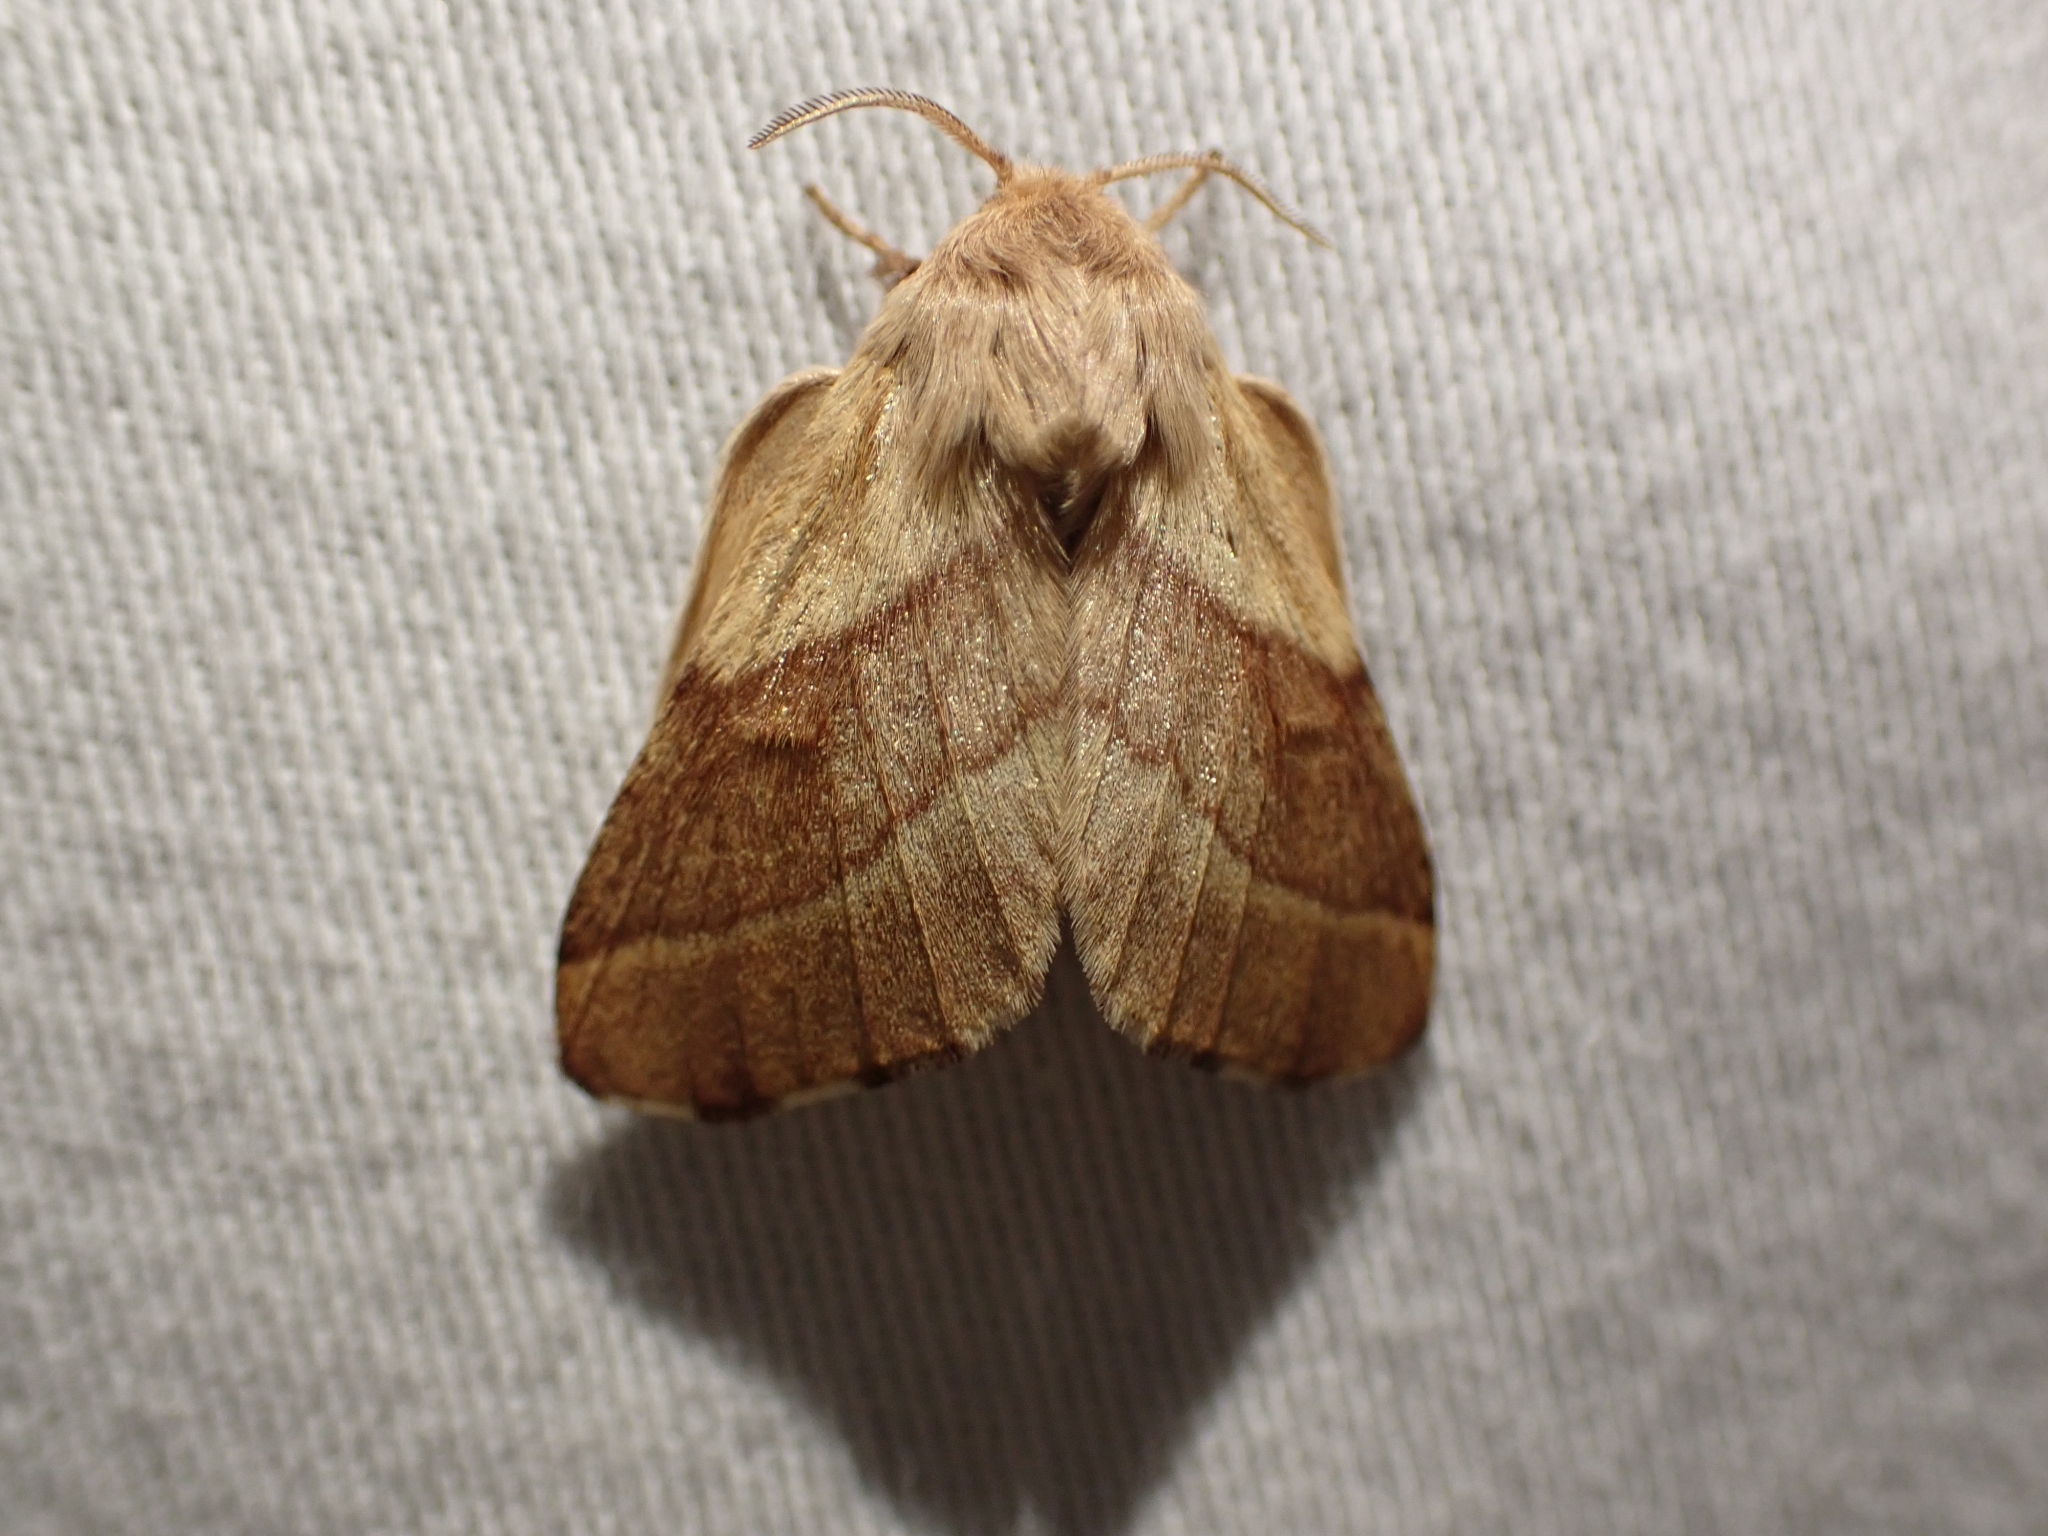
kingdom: Animalia
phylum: Arthropoda
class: Insecta
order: Lepidoptera
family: Lasiocampidae
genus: Malacosoma
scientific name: Malacosoma disstria
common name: Forest tent caterpillar
